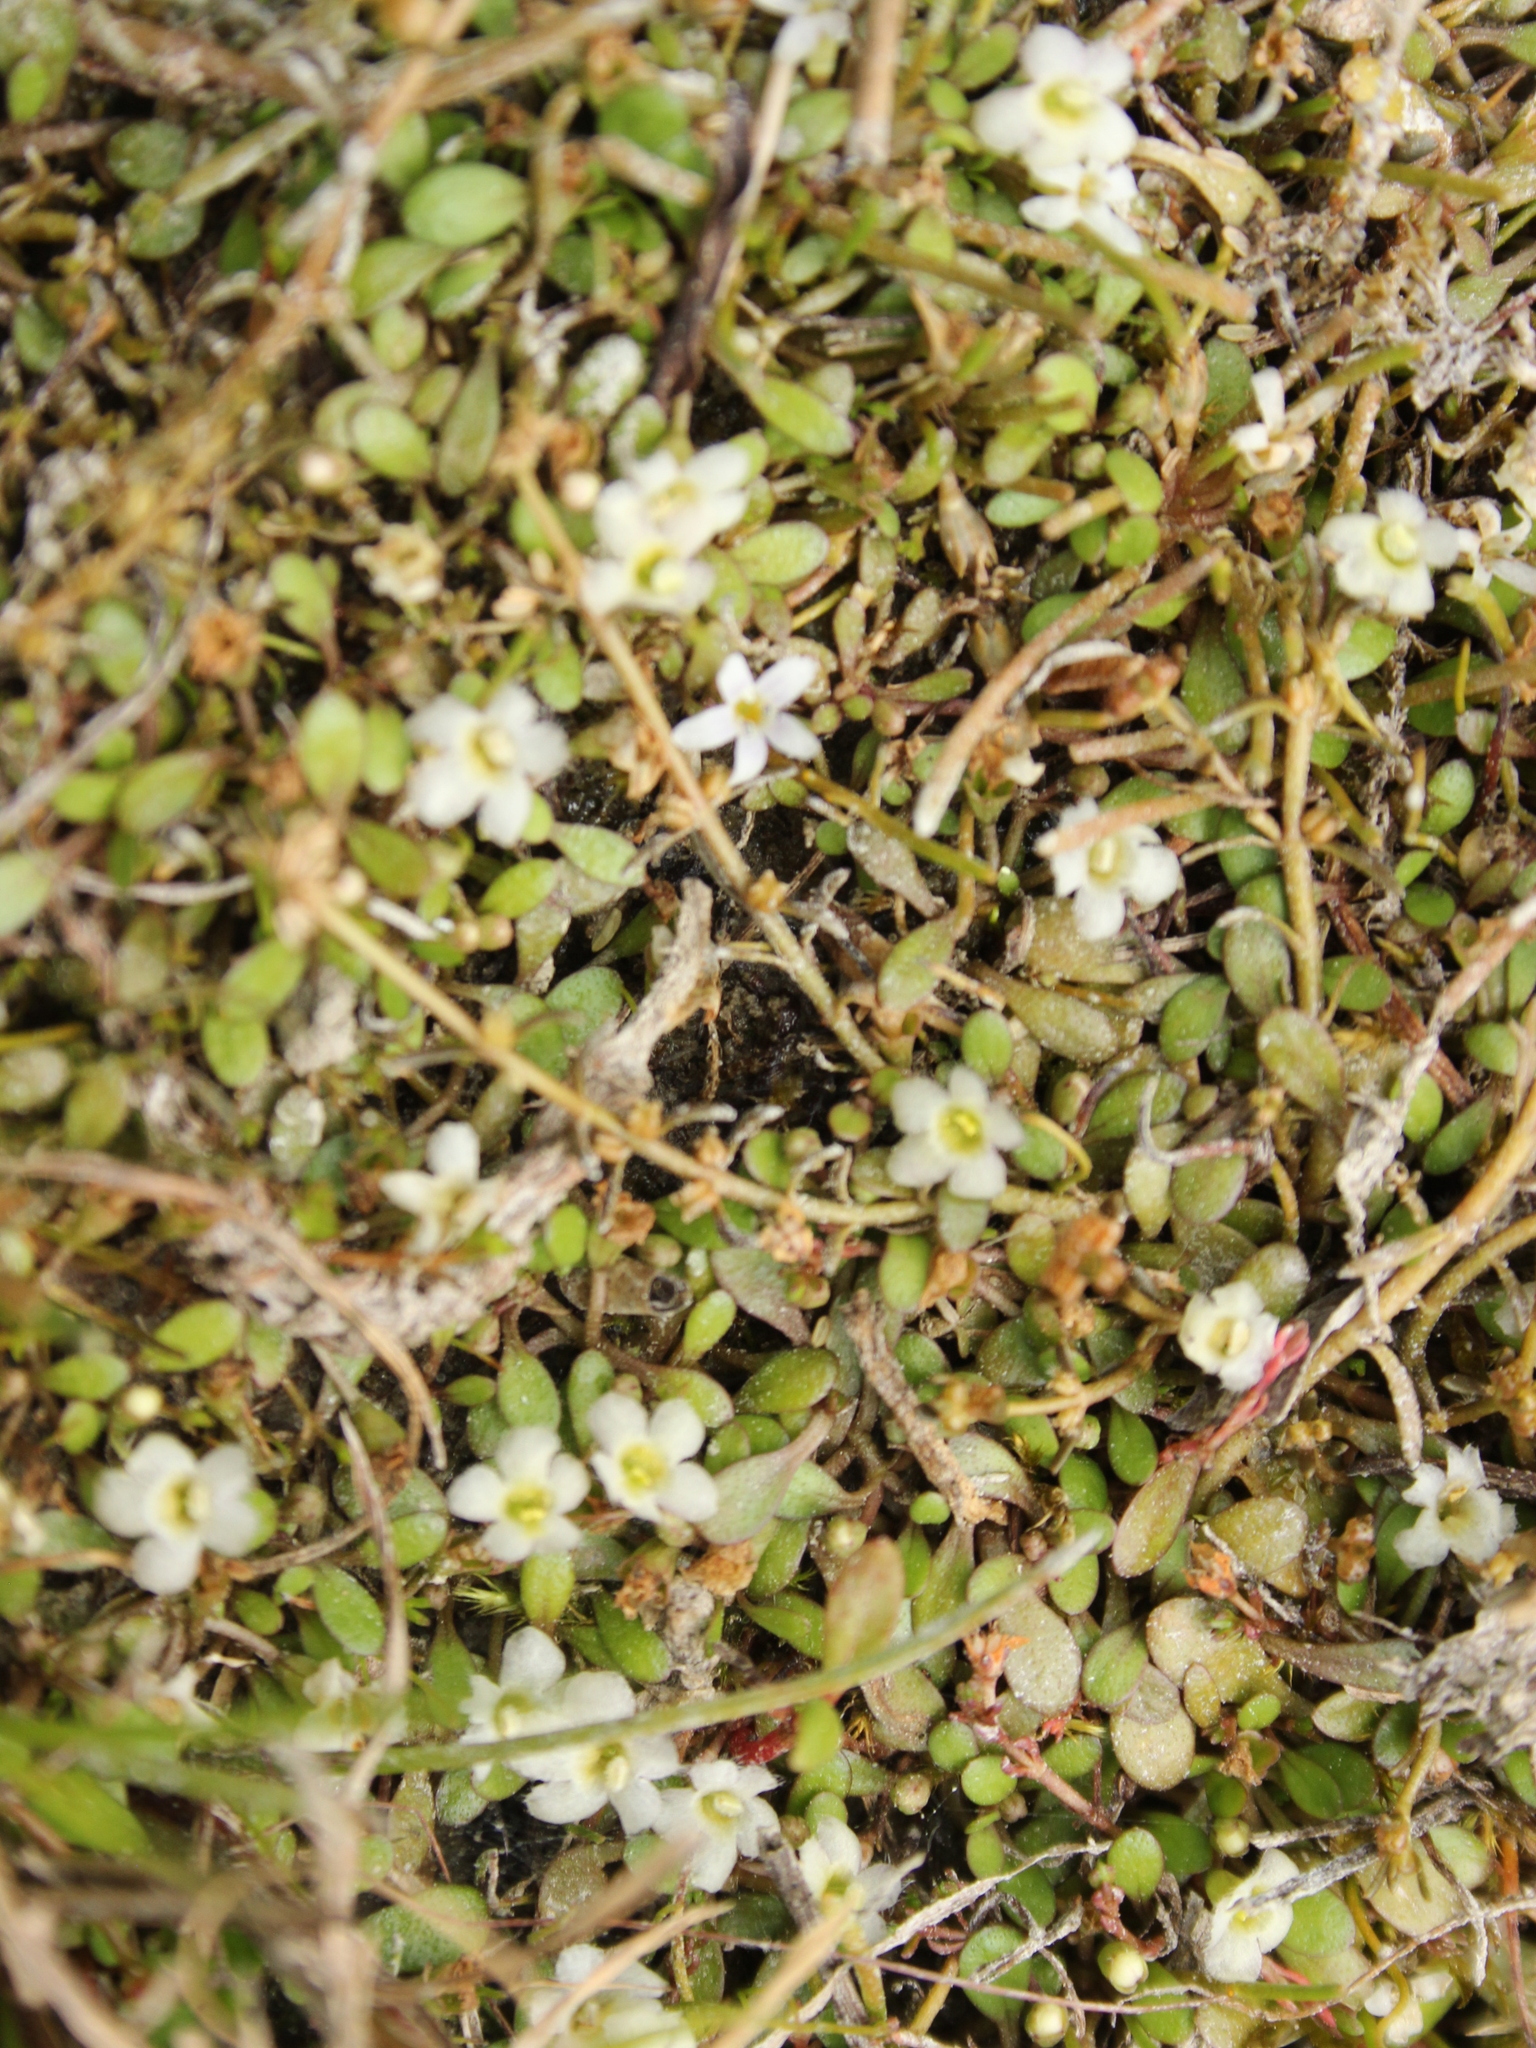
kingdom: Plantae
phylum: Tracheophyta
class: Magnoliopsida
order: Lamiales
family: Phrymaceae
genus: Glossostigma
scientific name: Glossostigma elatinoides
